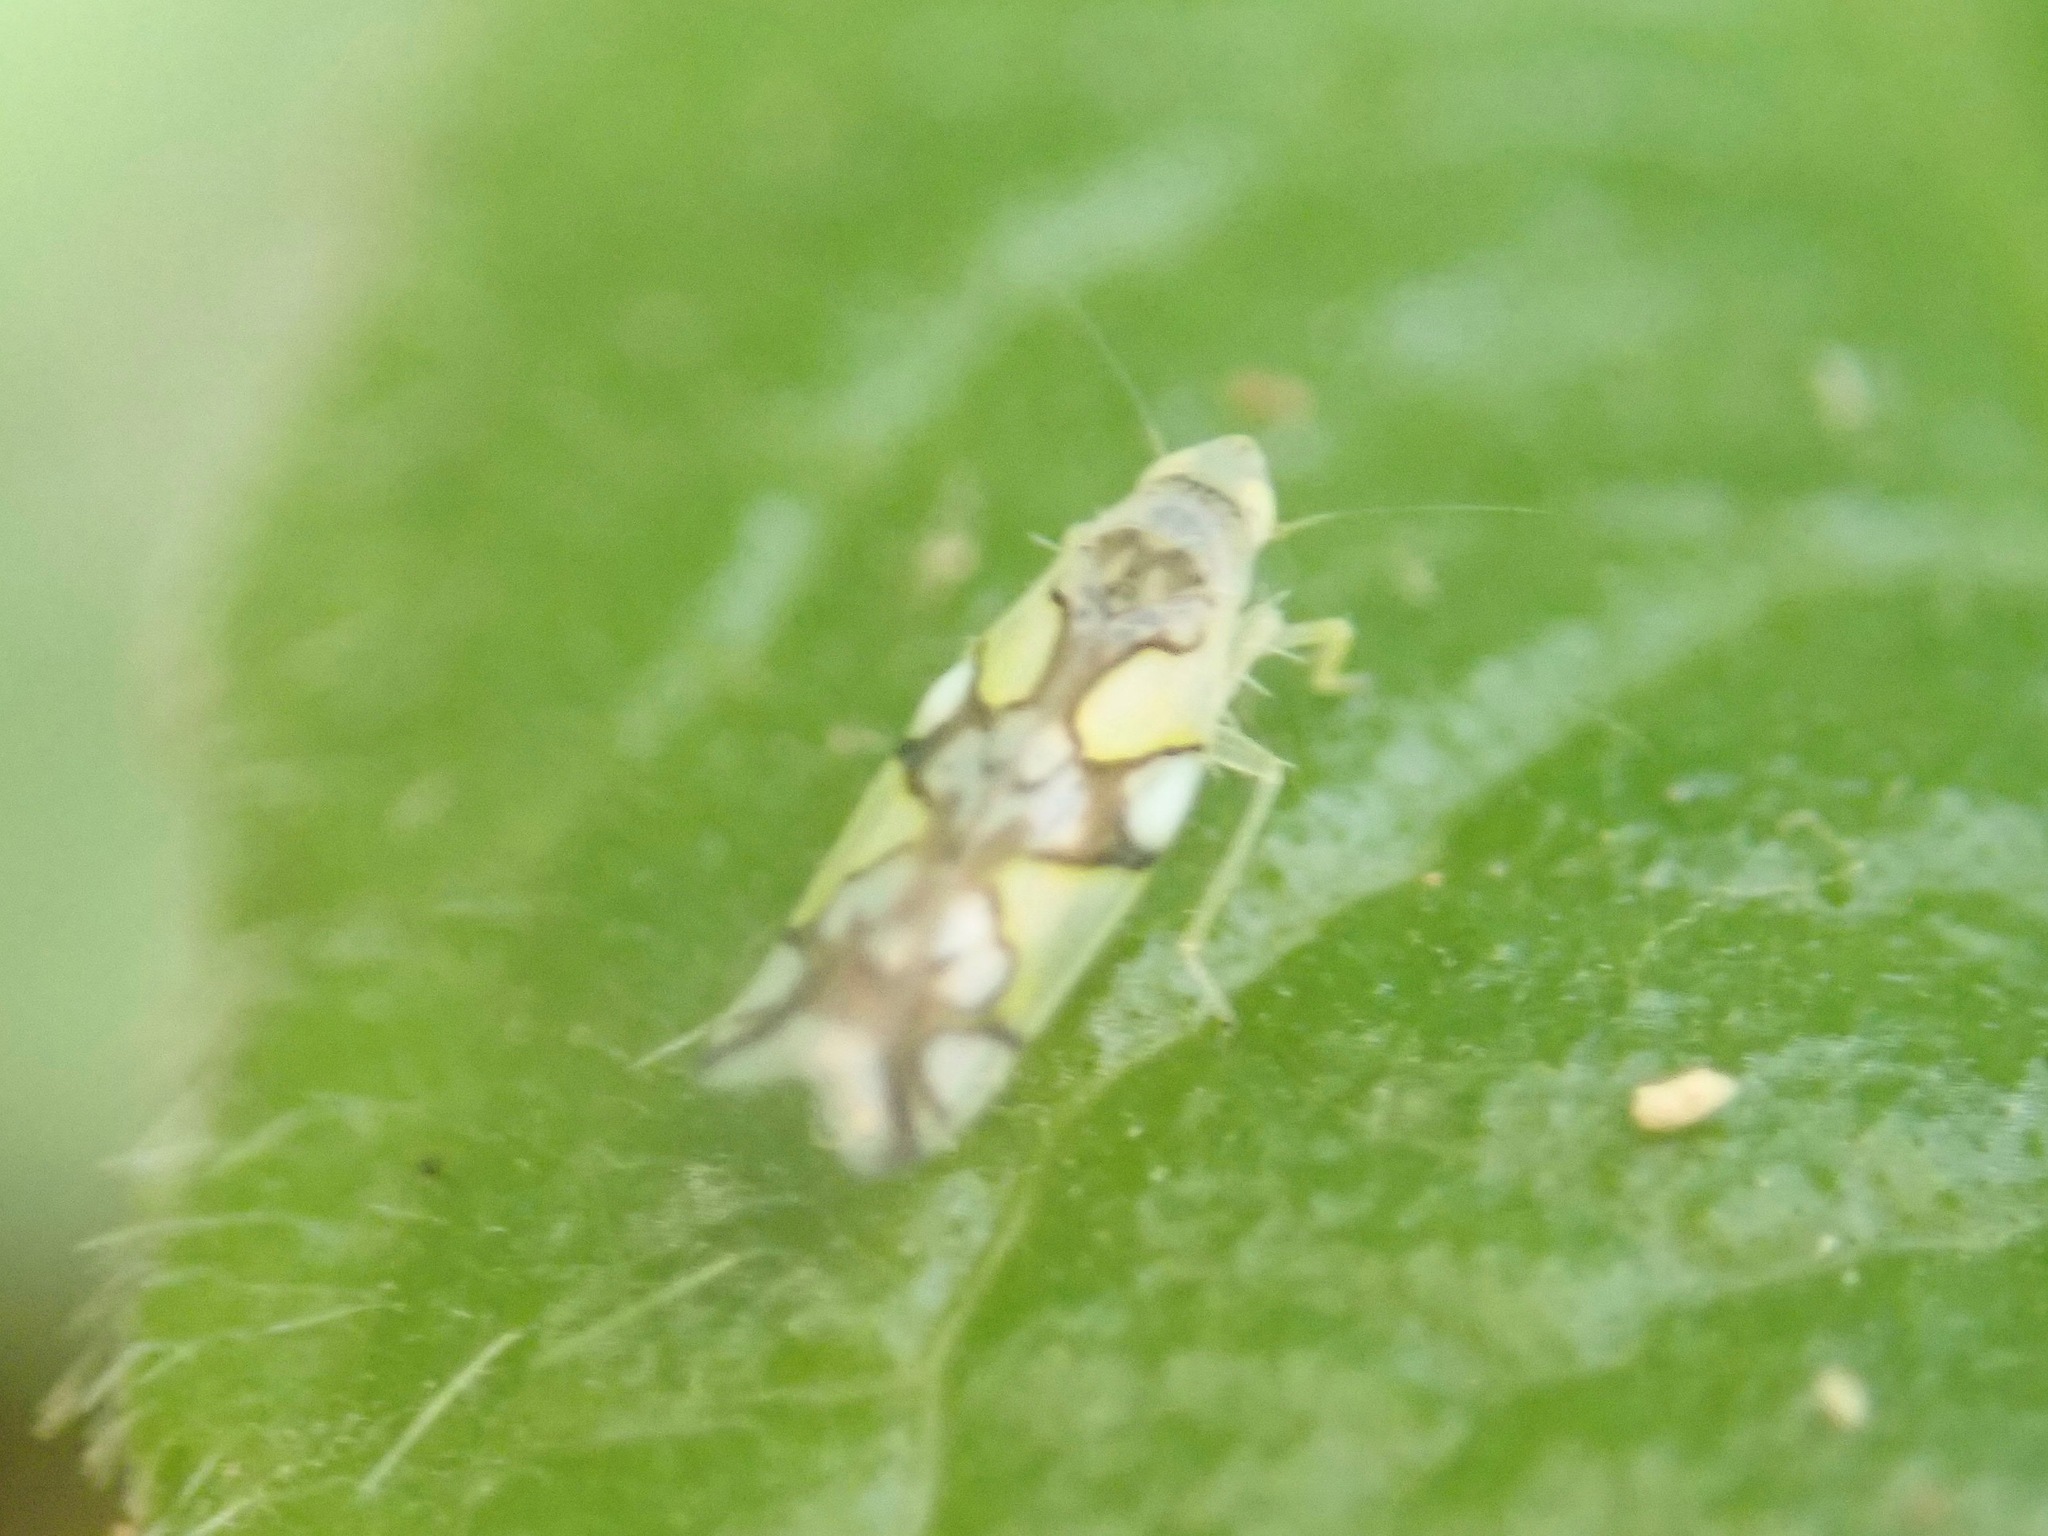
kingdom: Animalia
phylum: Arthropoda
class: Insecta
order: Hemiptera
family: Cicadellidae
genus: Protalebrella
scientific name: Protalebrella conica
